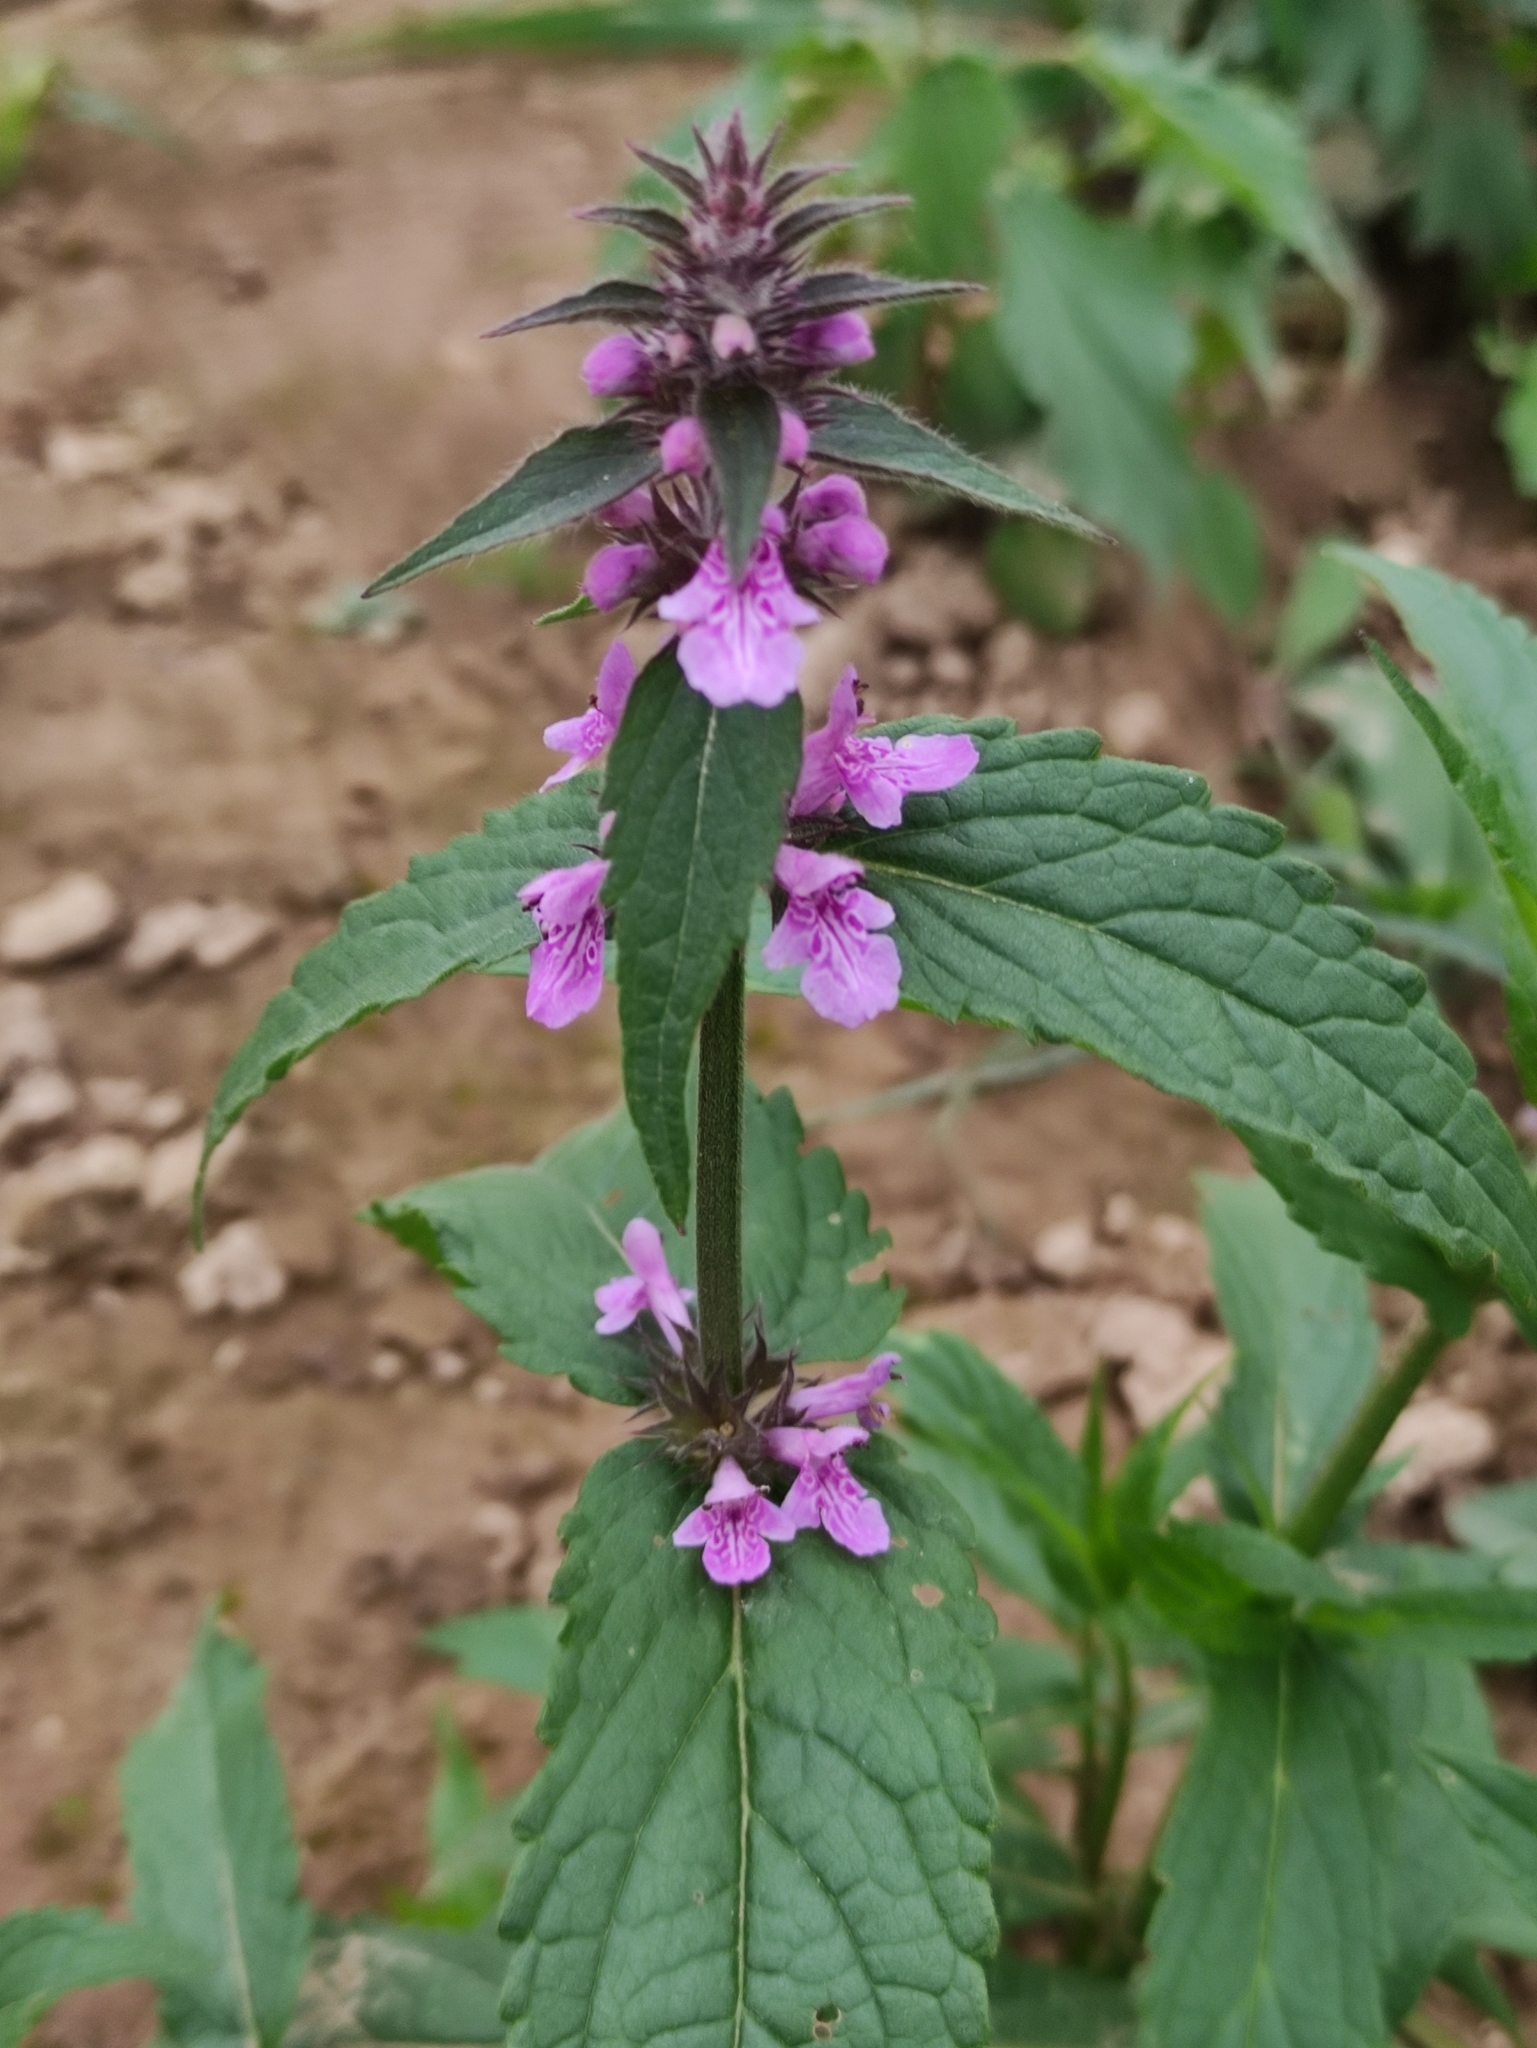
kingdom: Plantae
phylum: Tracheophyta
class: Magnoliopsida
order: Lamiales
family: Lamiaceae
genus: Stachys
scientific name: Stachys palustris
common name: Marsh woundwort
